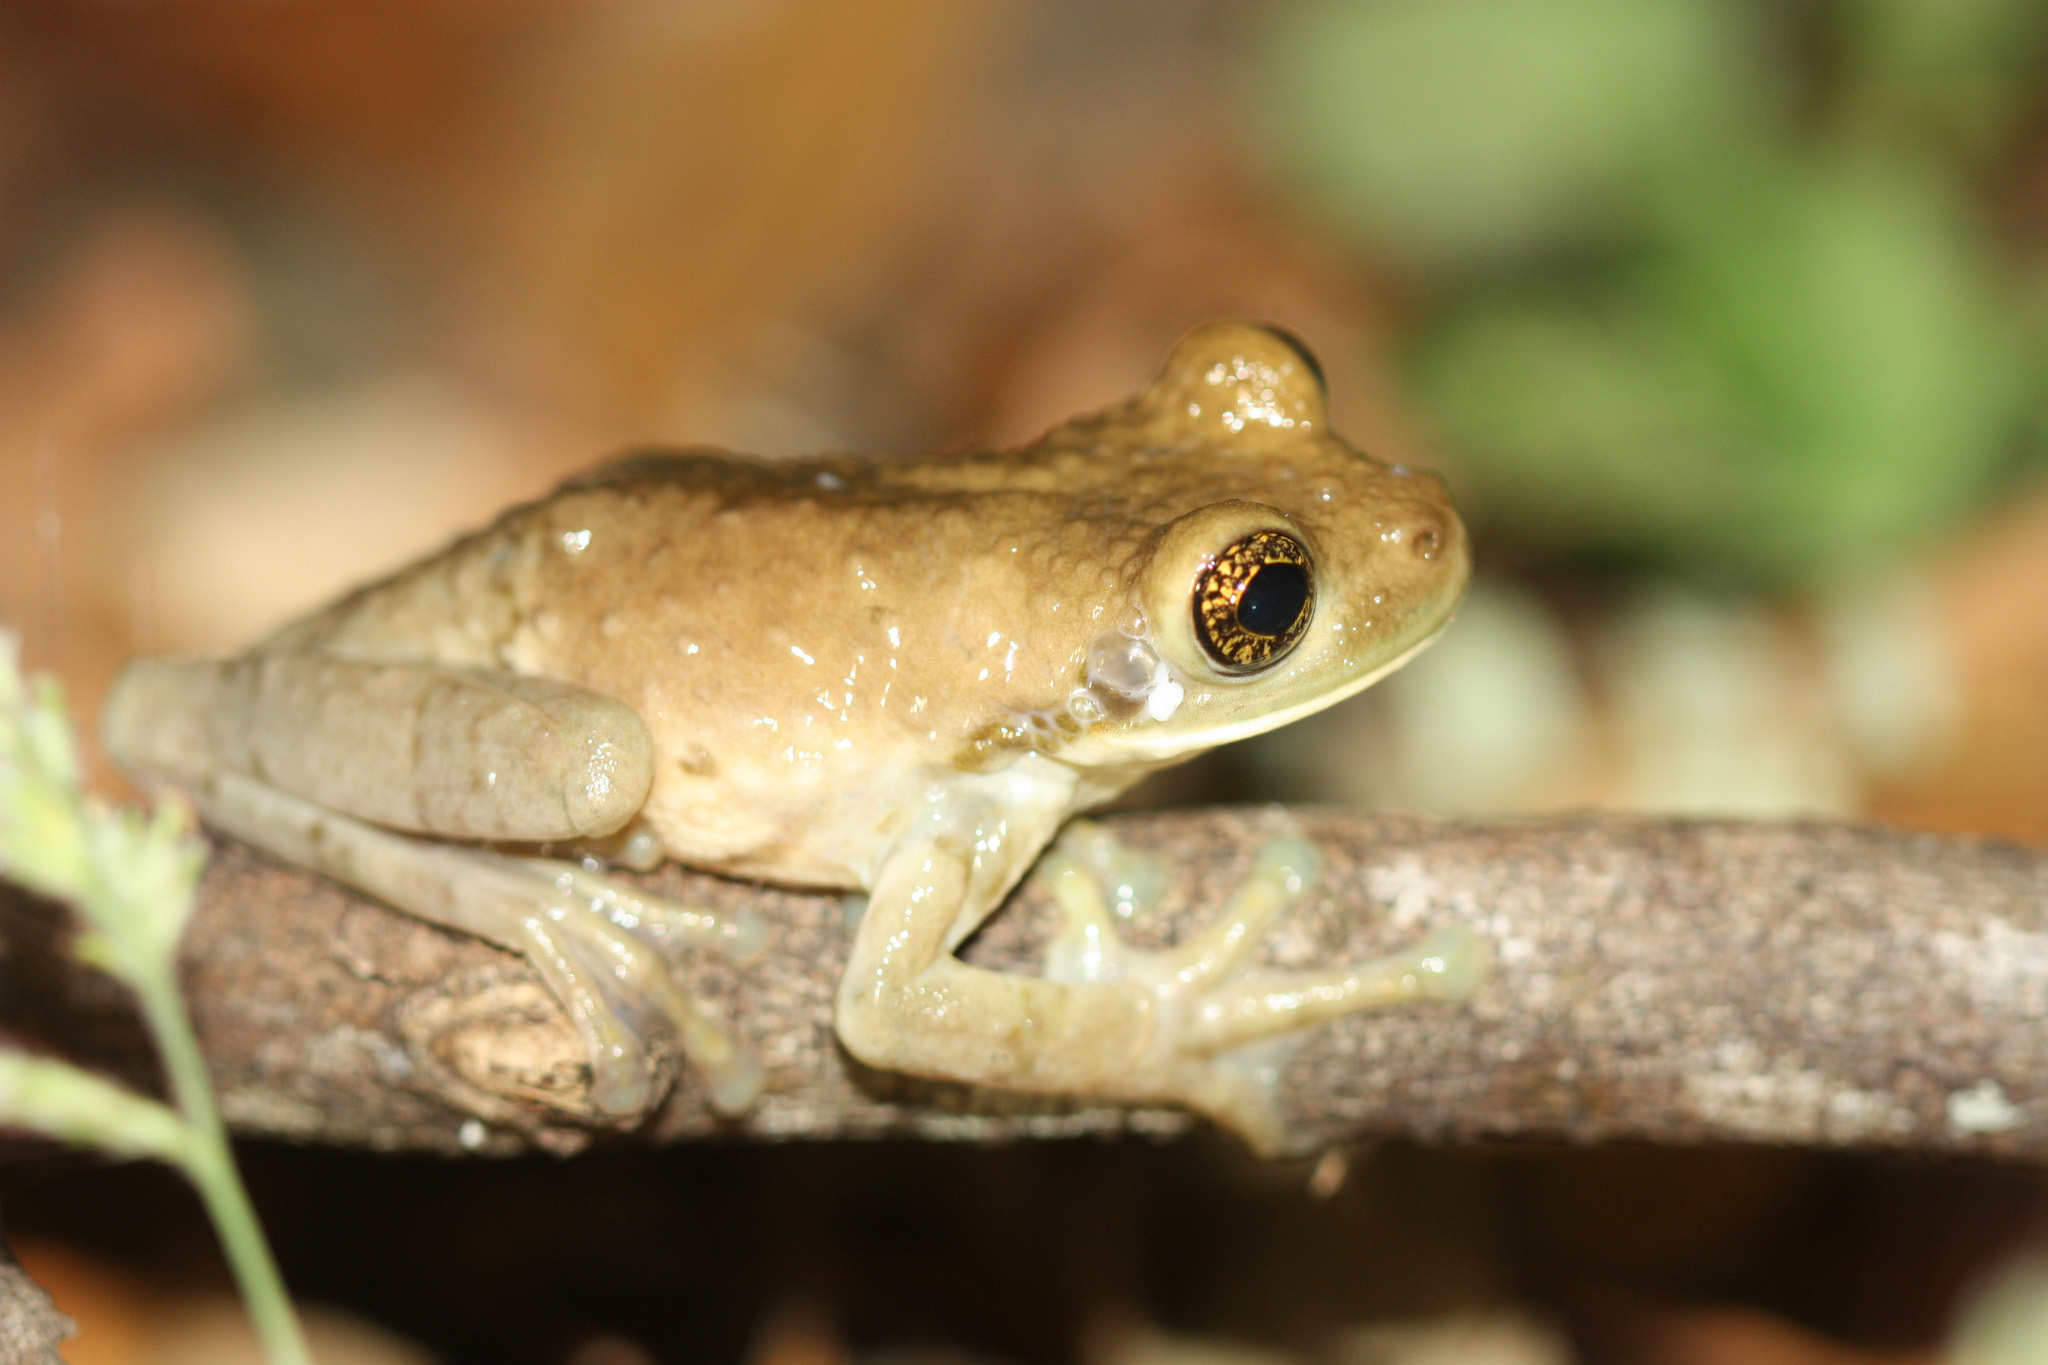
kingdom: Animalia
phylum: Chordata
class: Amphibia
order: Anura
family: Hylidae
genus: Trachycephalus
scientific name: Trachycephalus vermiculatus
